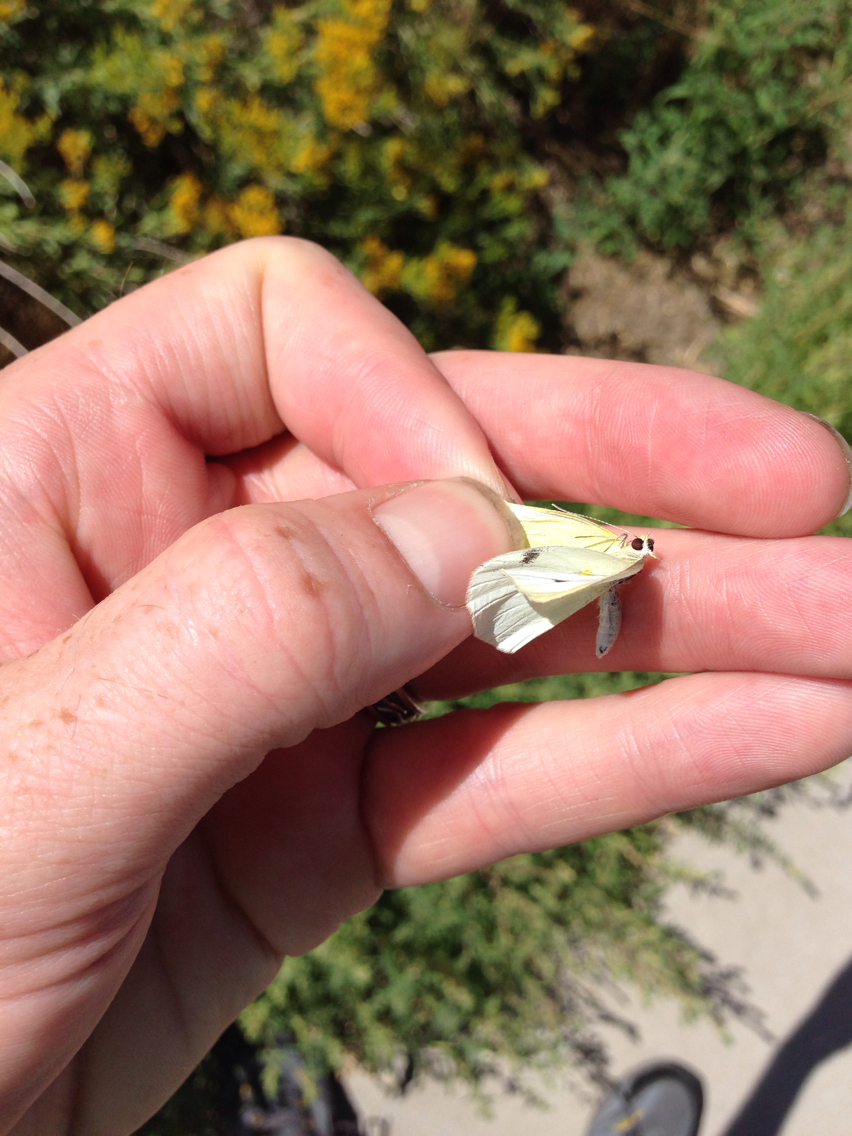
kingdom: Animalia
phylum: Arthropoda
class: Insecta
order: Lepidoptera
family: Pieridae
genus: Pieris
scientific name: Pieris rapae
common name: Small white
